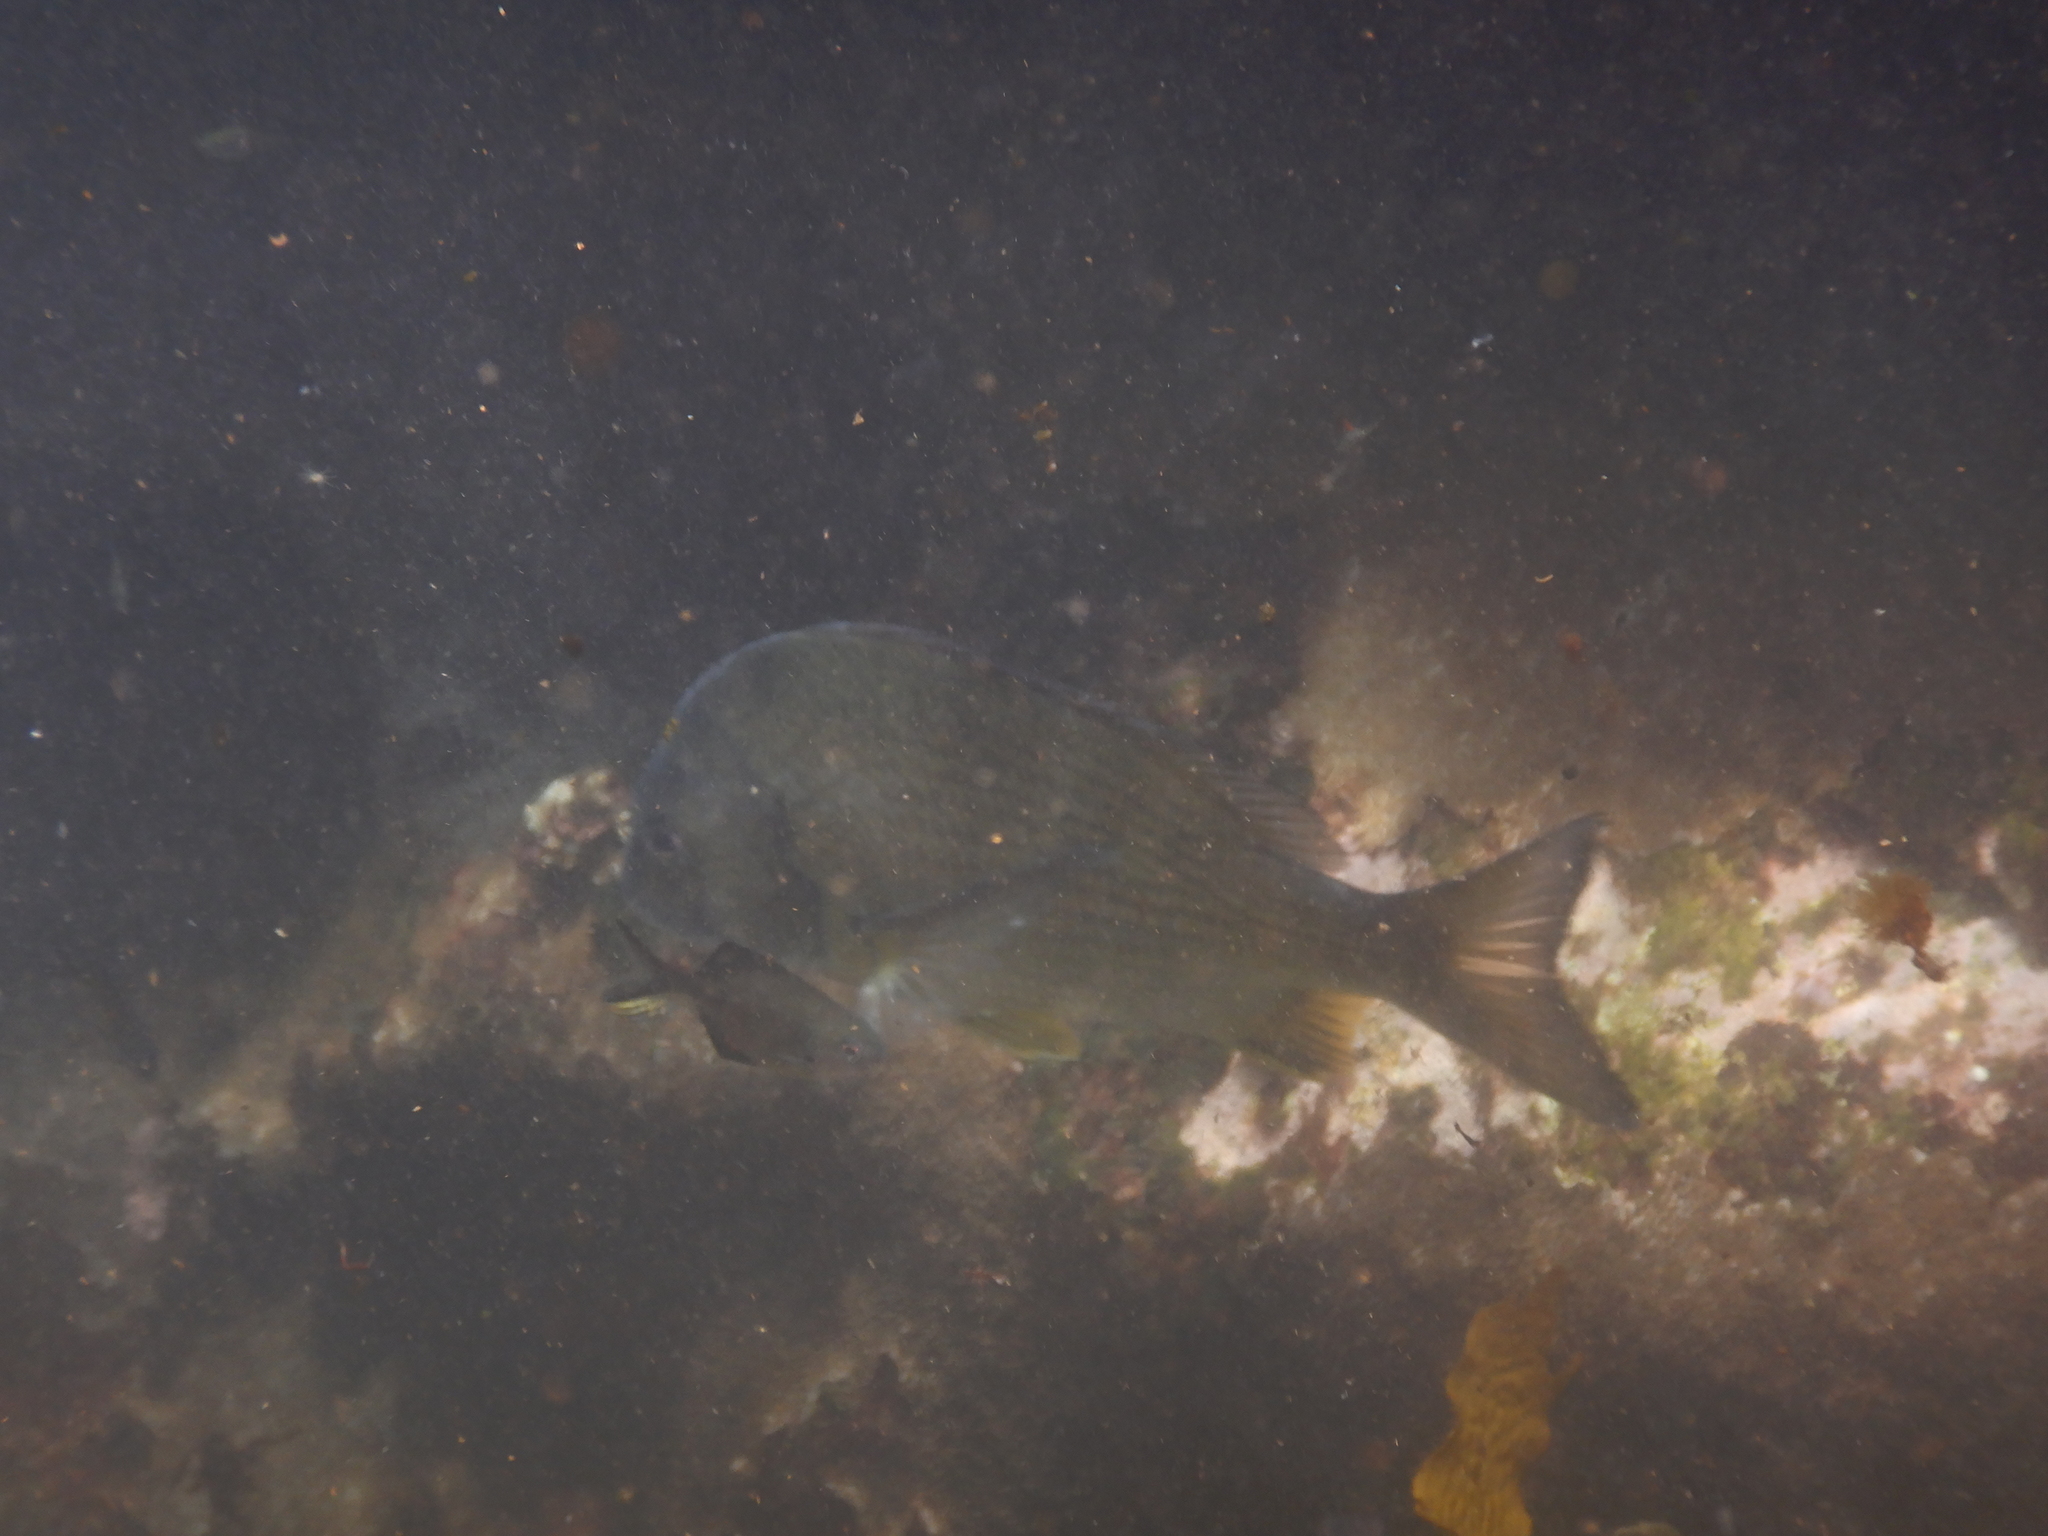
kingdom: Animalia
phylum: Chordata
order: Perciformes
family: Sparidae
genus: Acanthopagrus
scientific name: Acanthopagrus australis
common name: Surf bream
